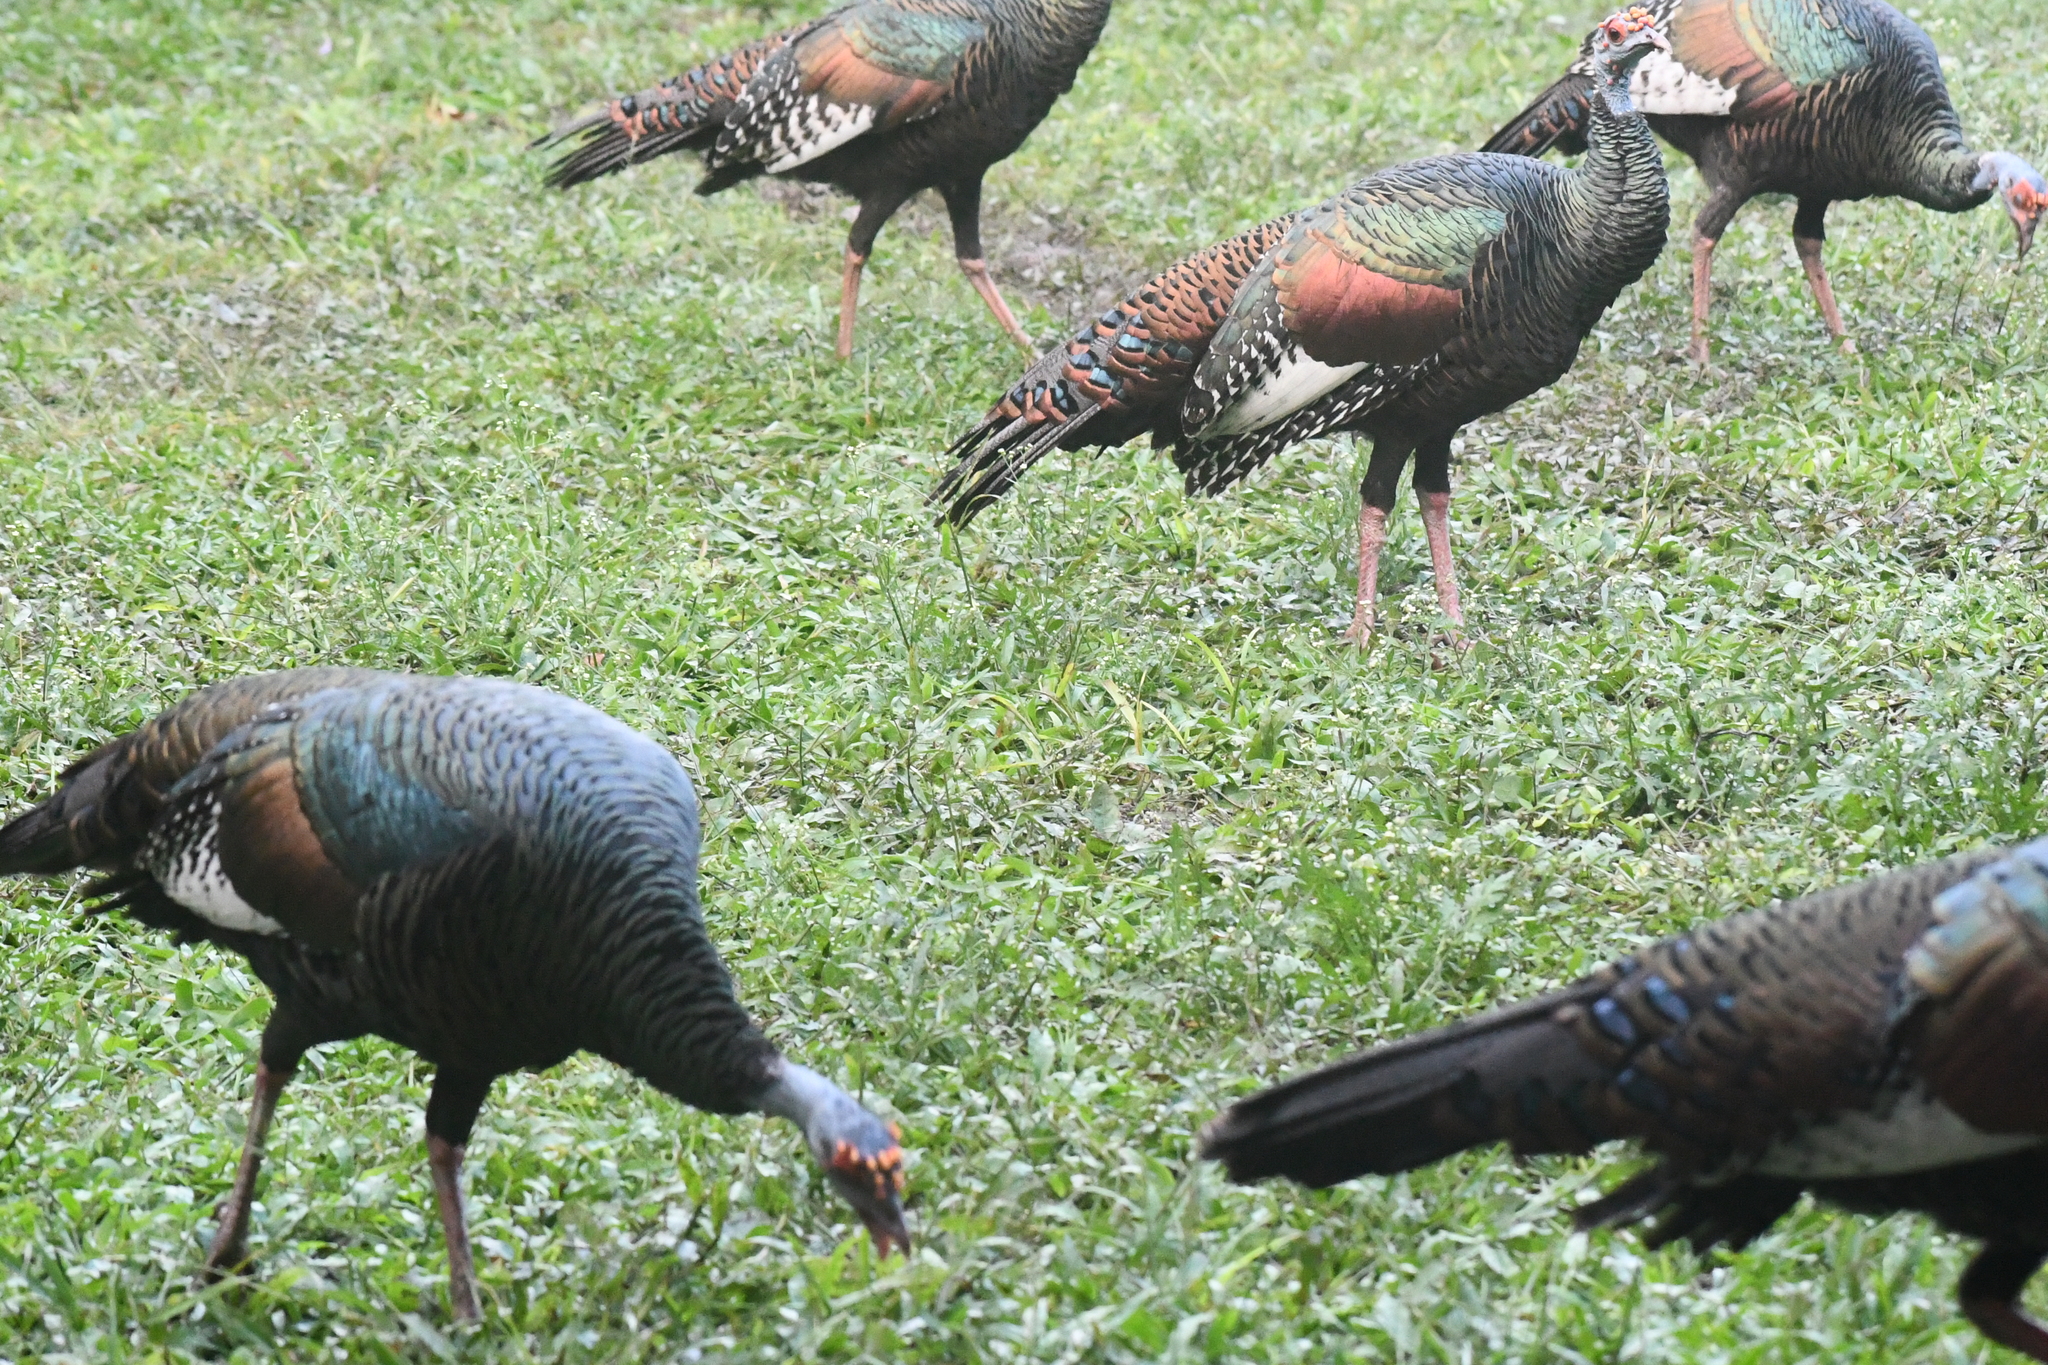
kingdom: Animalia
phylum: Chordata
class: Aves
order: Galliformes
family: Phasianidae
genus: Meleagris
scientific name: Meleagris ocellata
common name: Ocellated turkey
